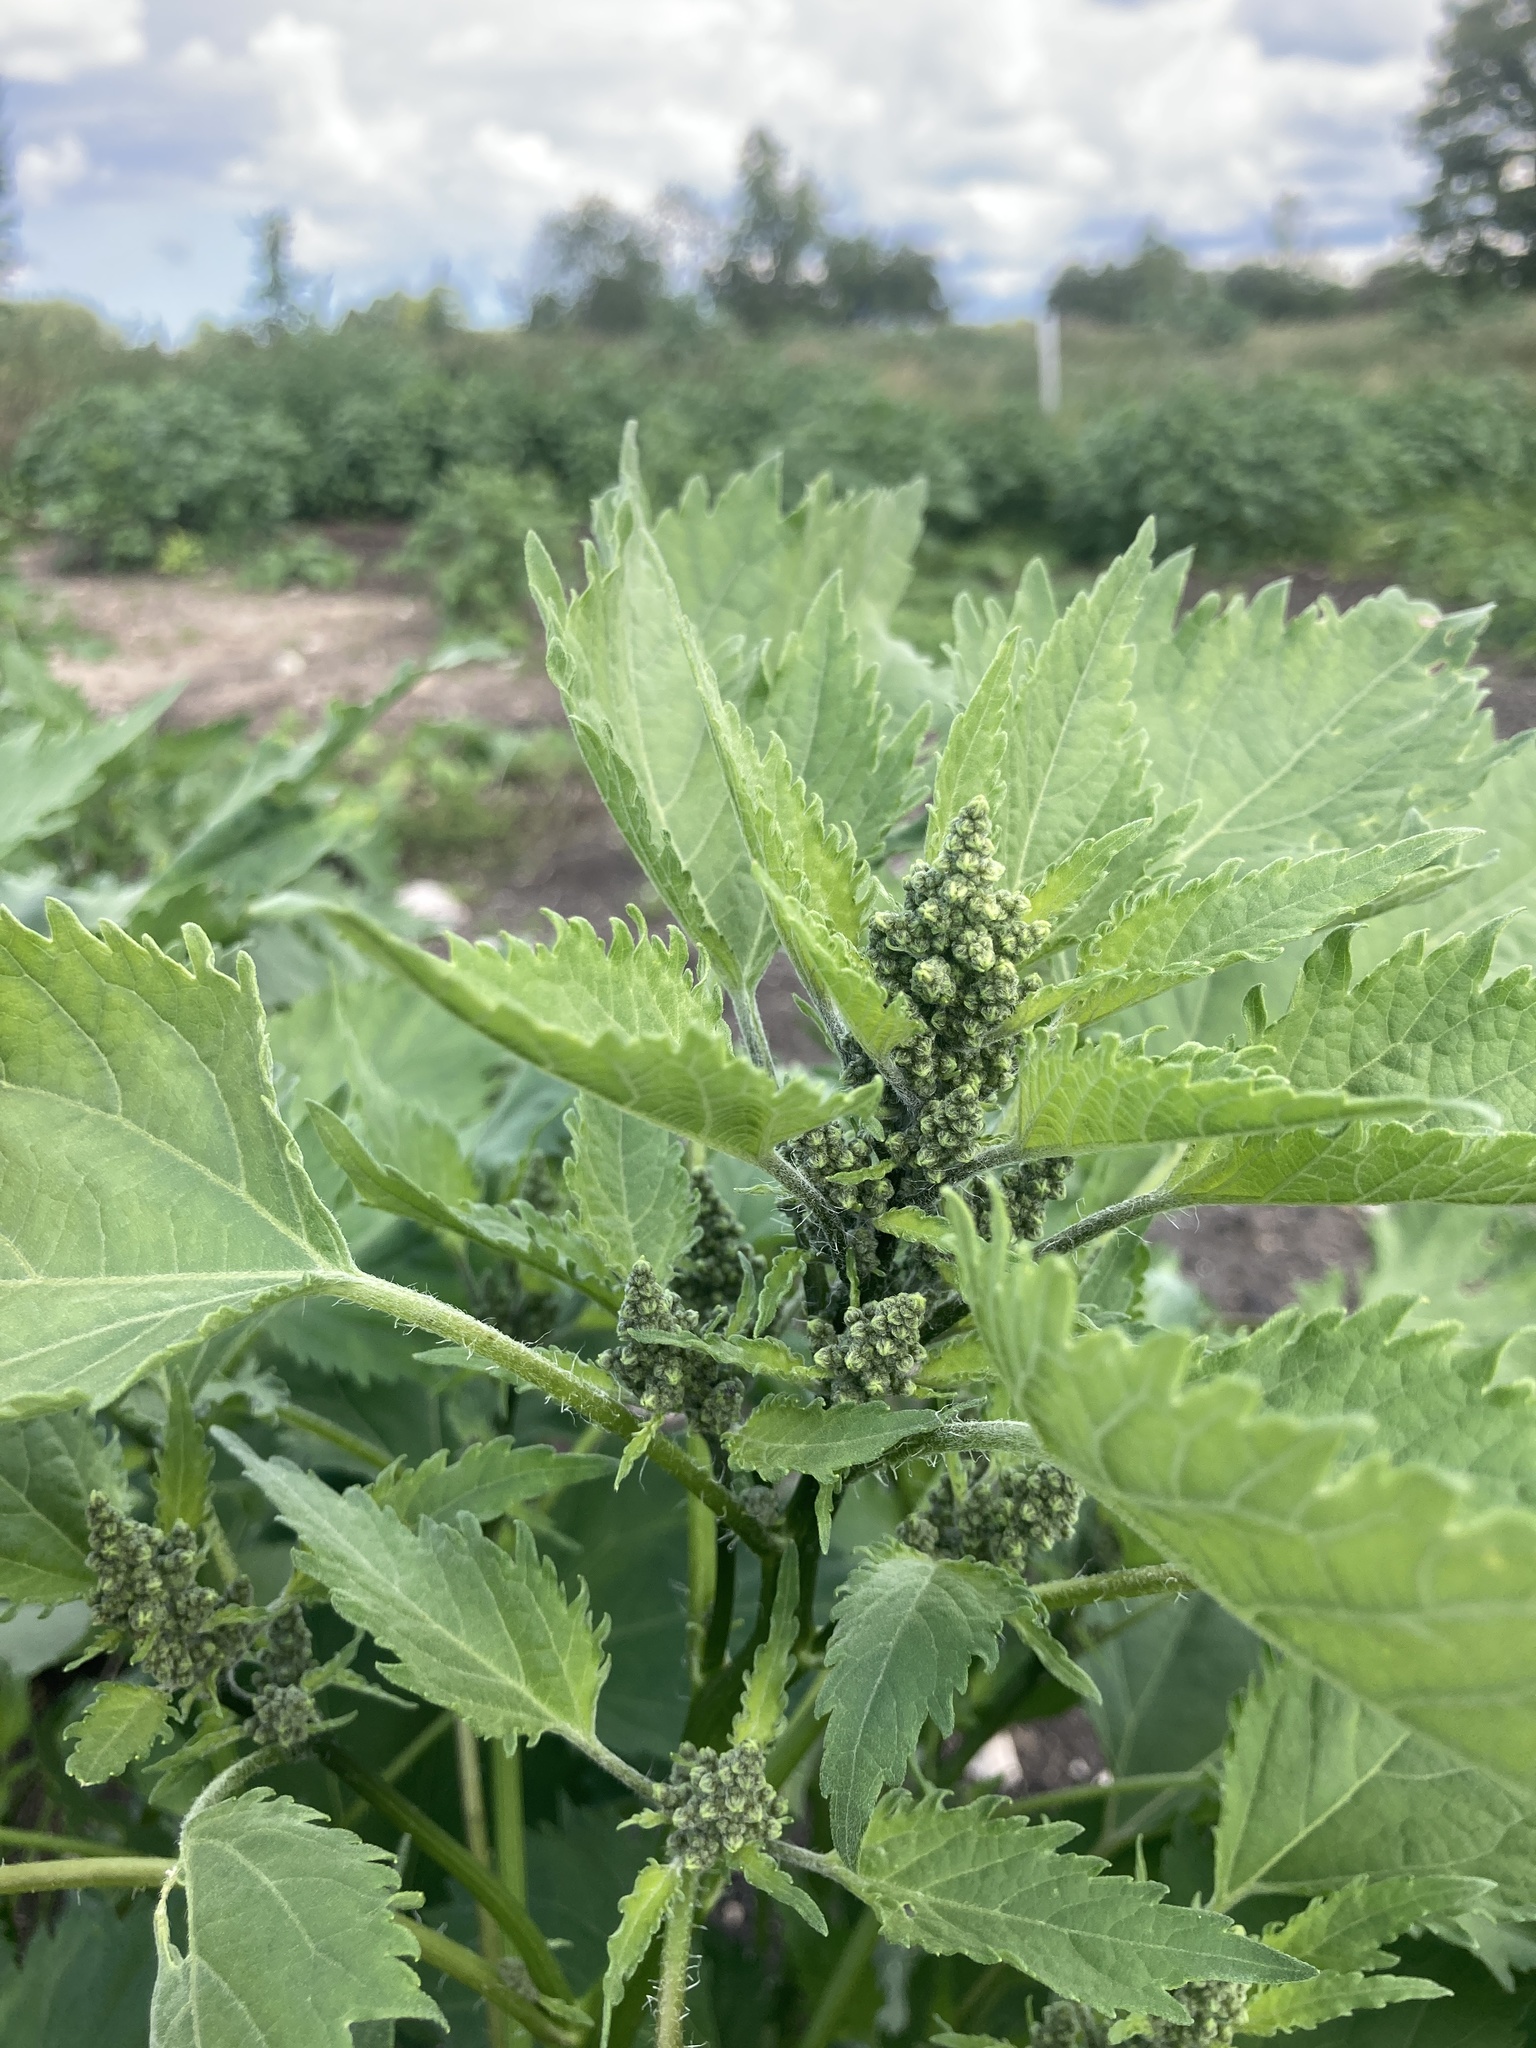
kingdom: Plantae
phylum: Tracheophyta
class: Magnoliopsida
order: Asterales
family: Asteraceae
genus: Cyclachaena
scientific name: Cyclachaena xanthiifolia
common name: Giant sumpweed
